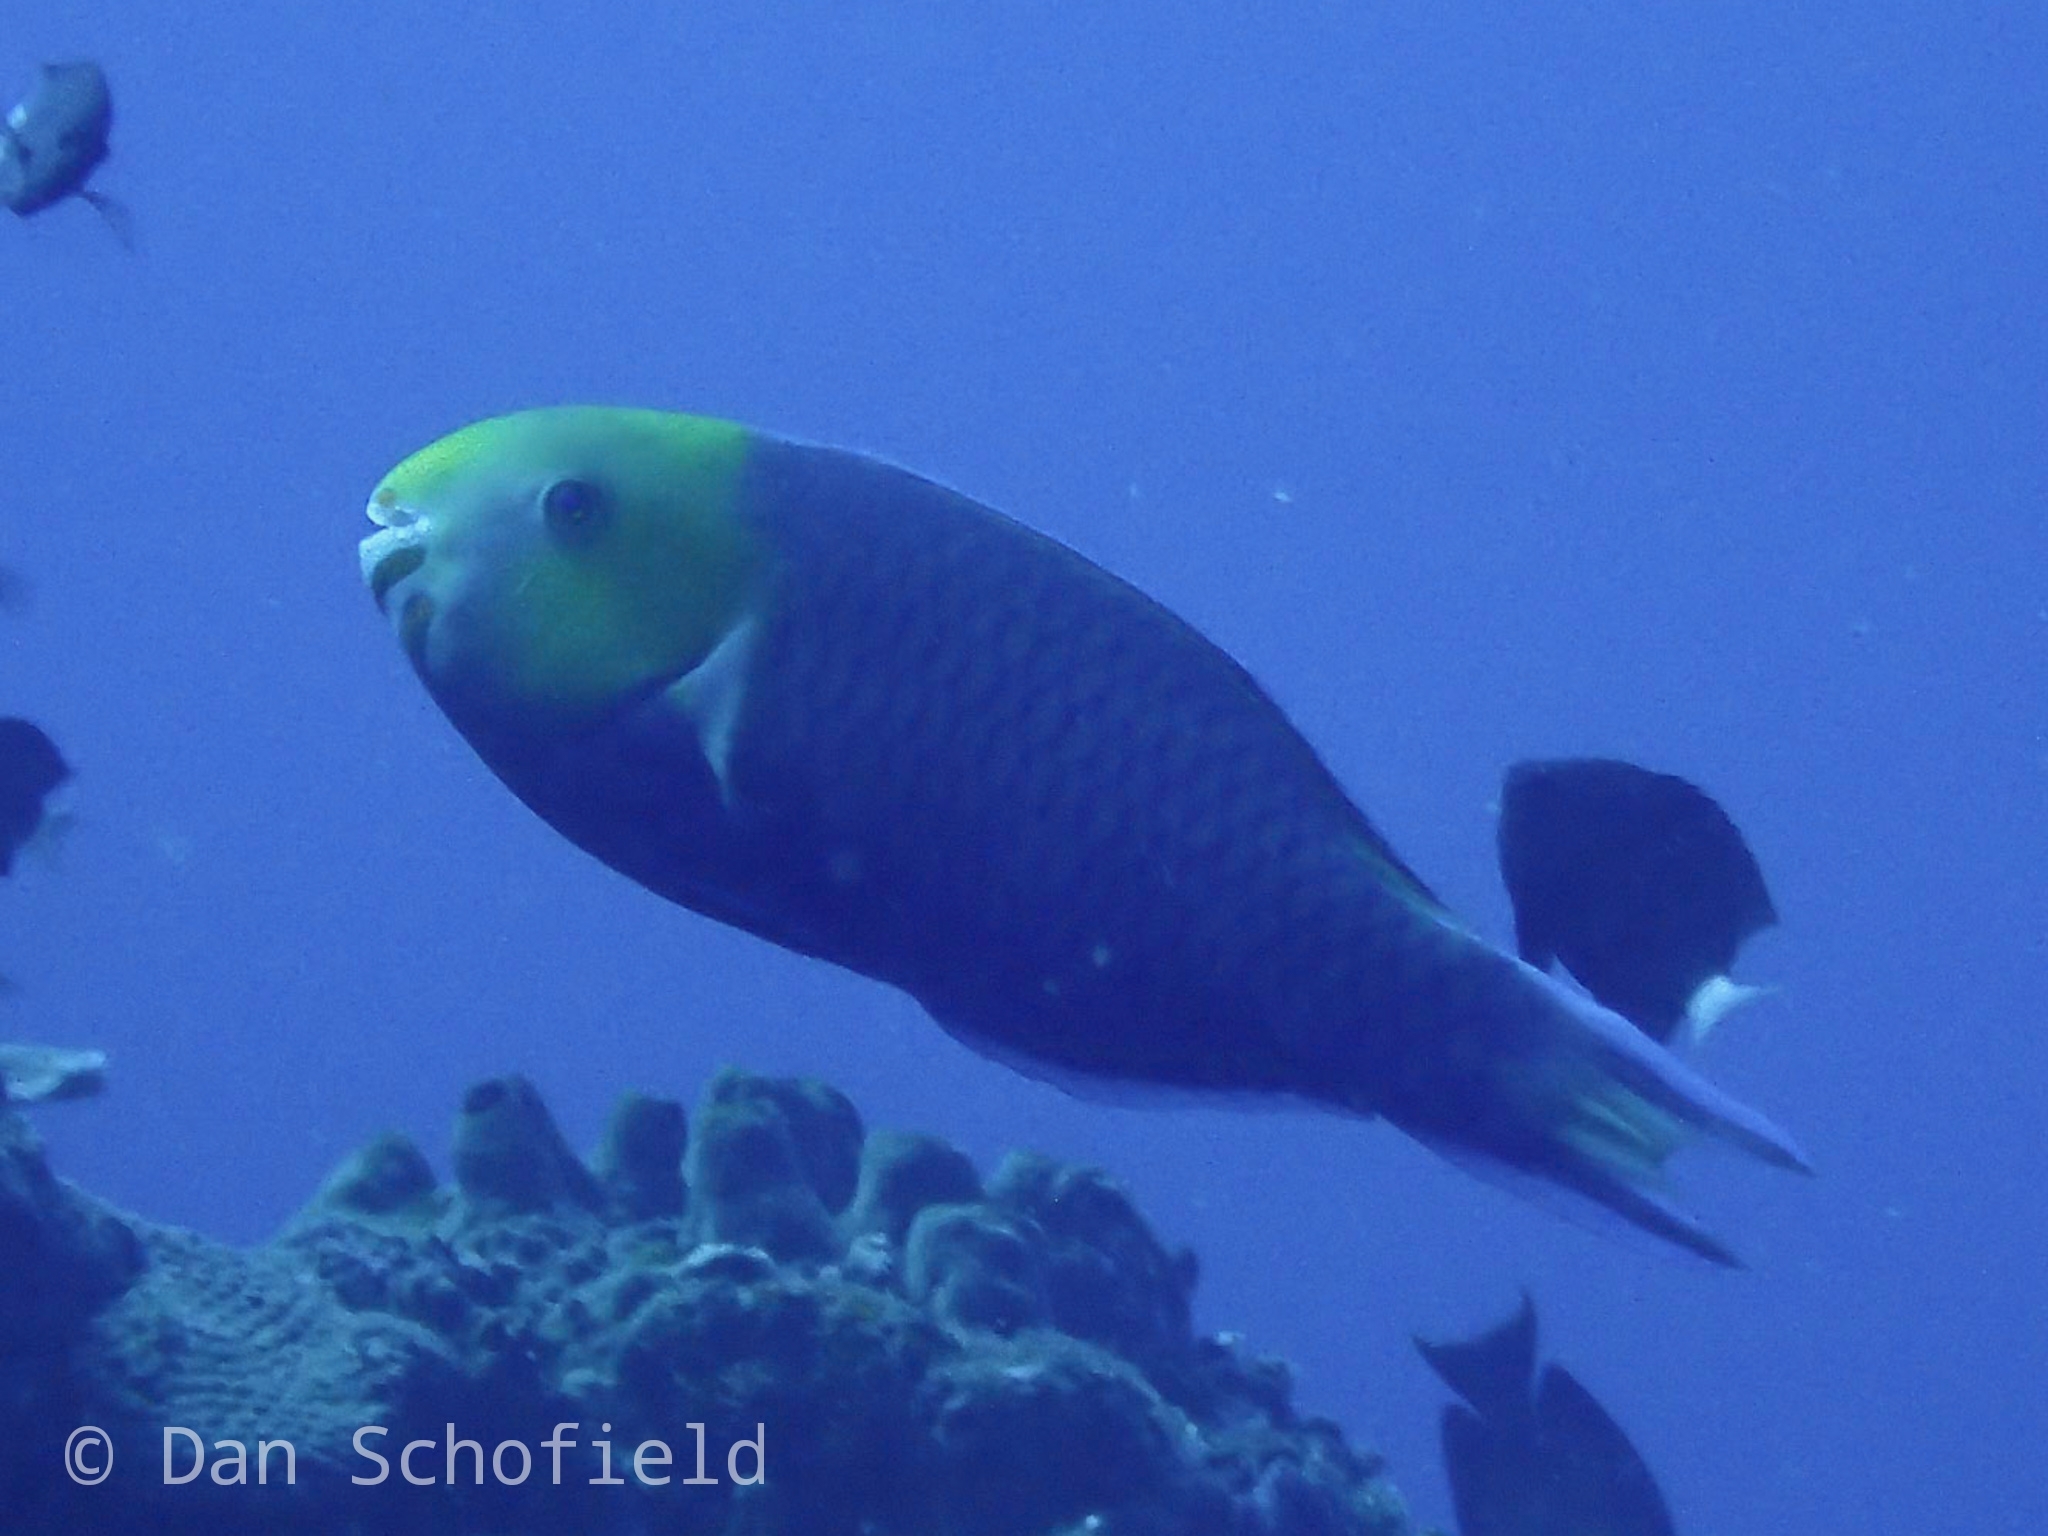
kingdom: Animalia
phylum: Chordata
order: Perciformes
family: Scaridae
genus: Scarus
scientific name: Scarus spinus
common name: Greensnout parrotfish
